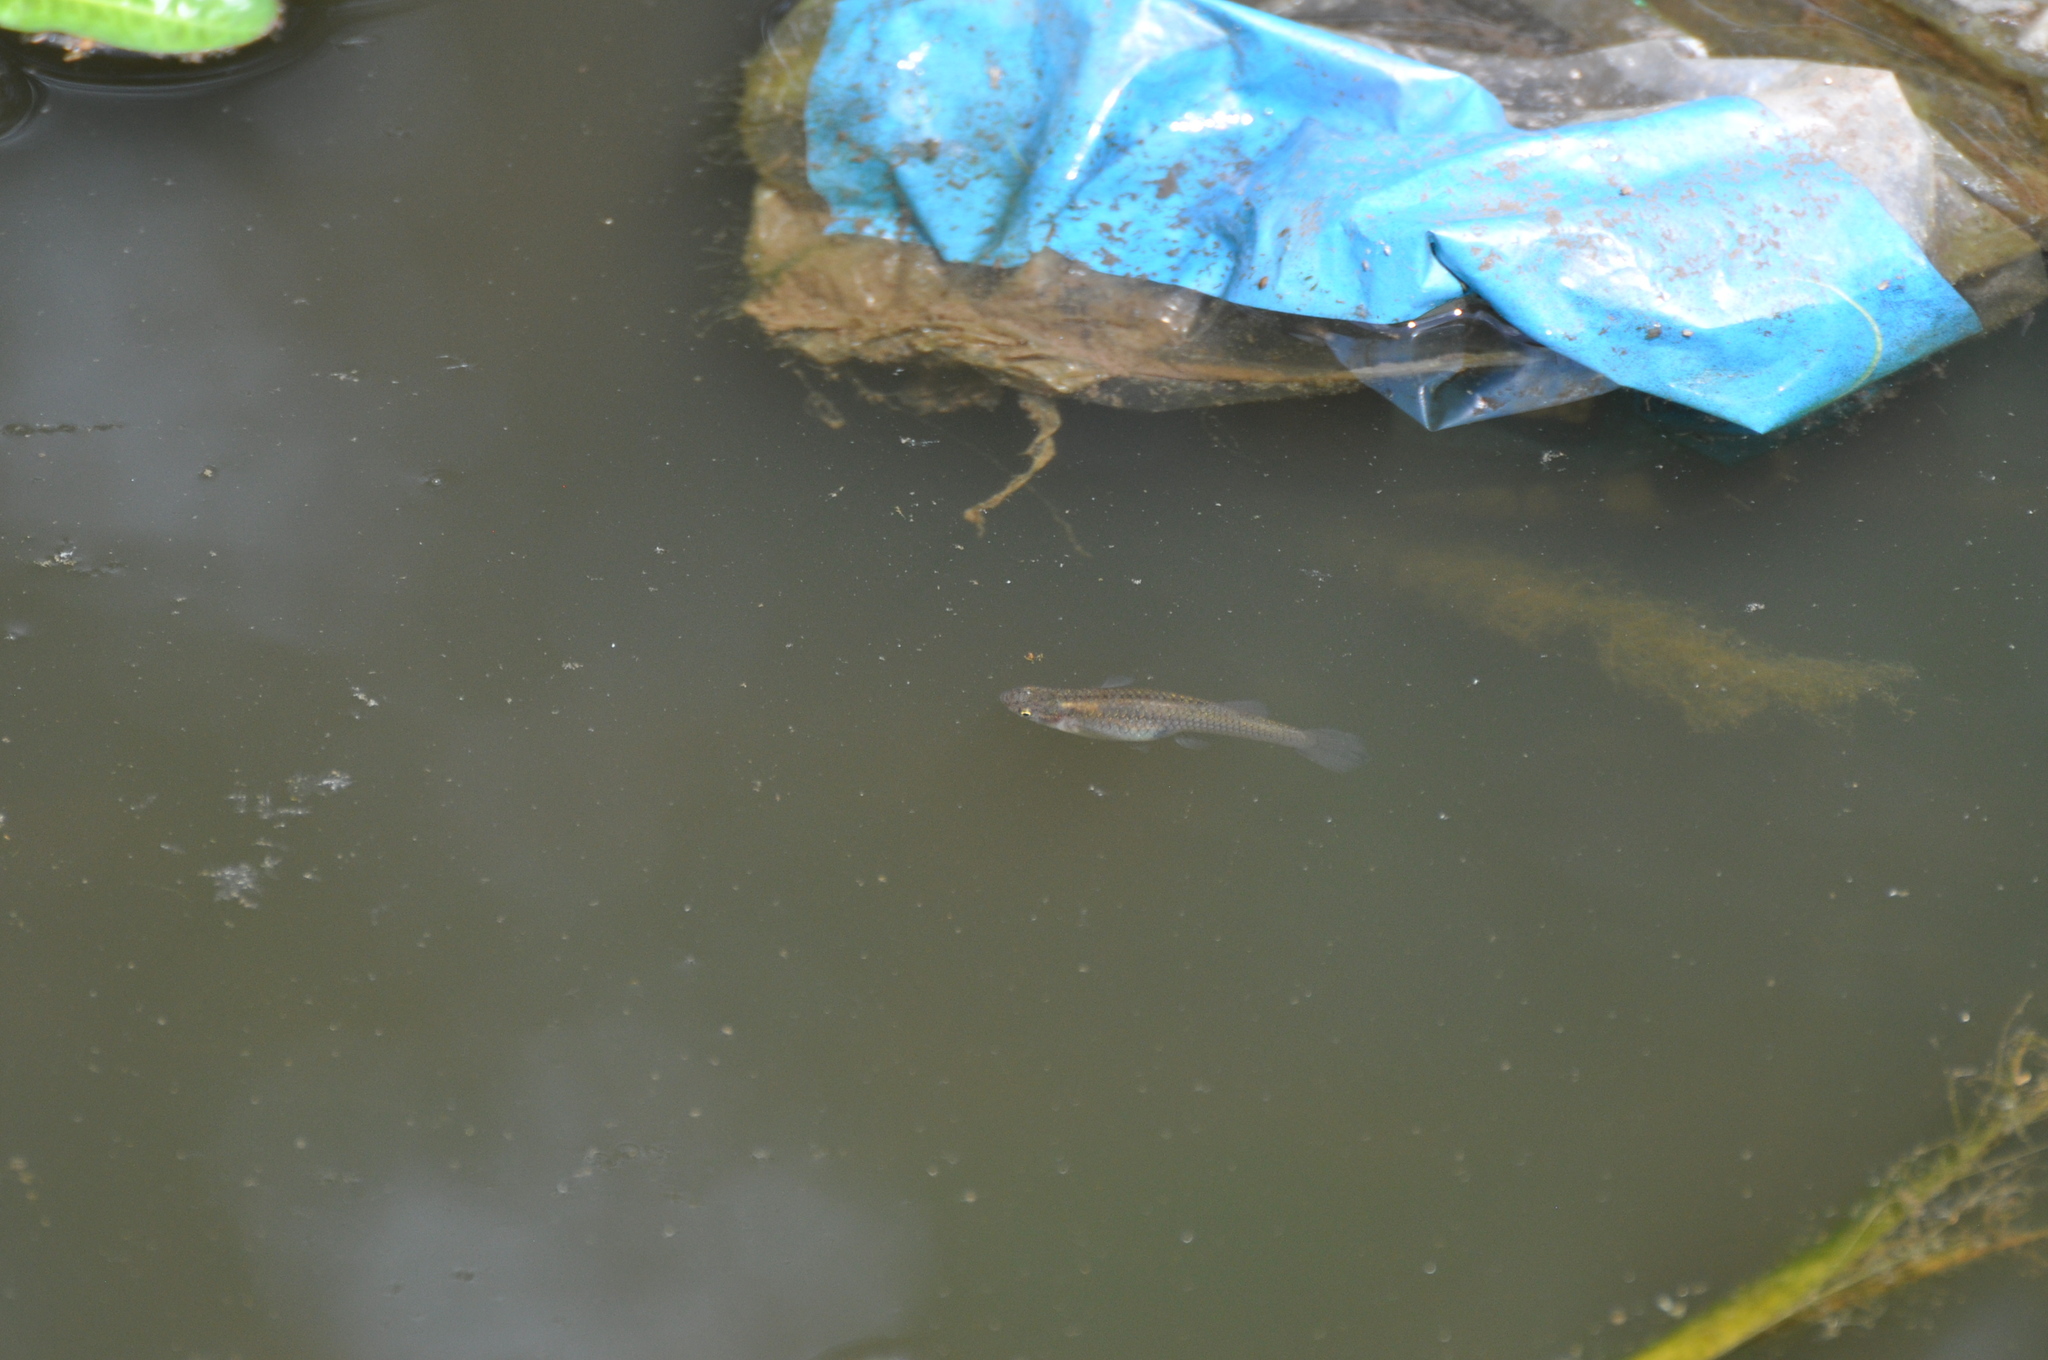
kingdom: Animalia
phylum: Chordata
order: Cyprinodontiformes
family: Poeciliidae
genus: Gambusia
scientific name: Gambusia affinis
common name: Mosquitofish
